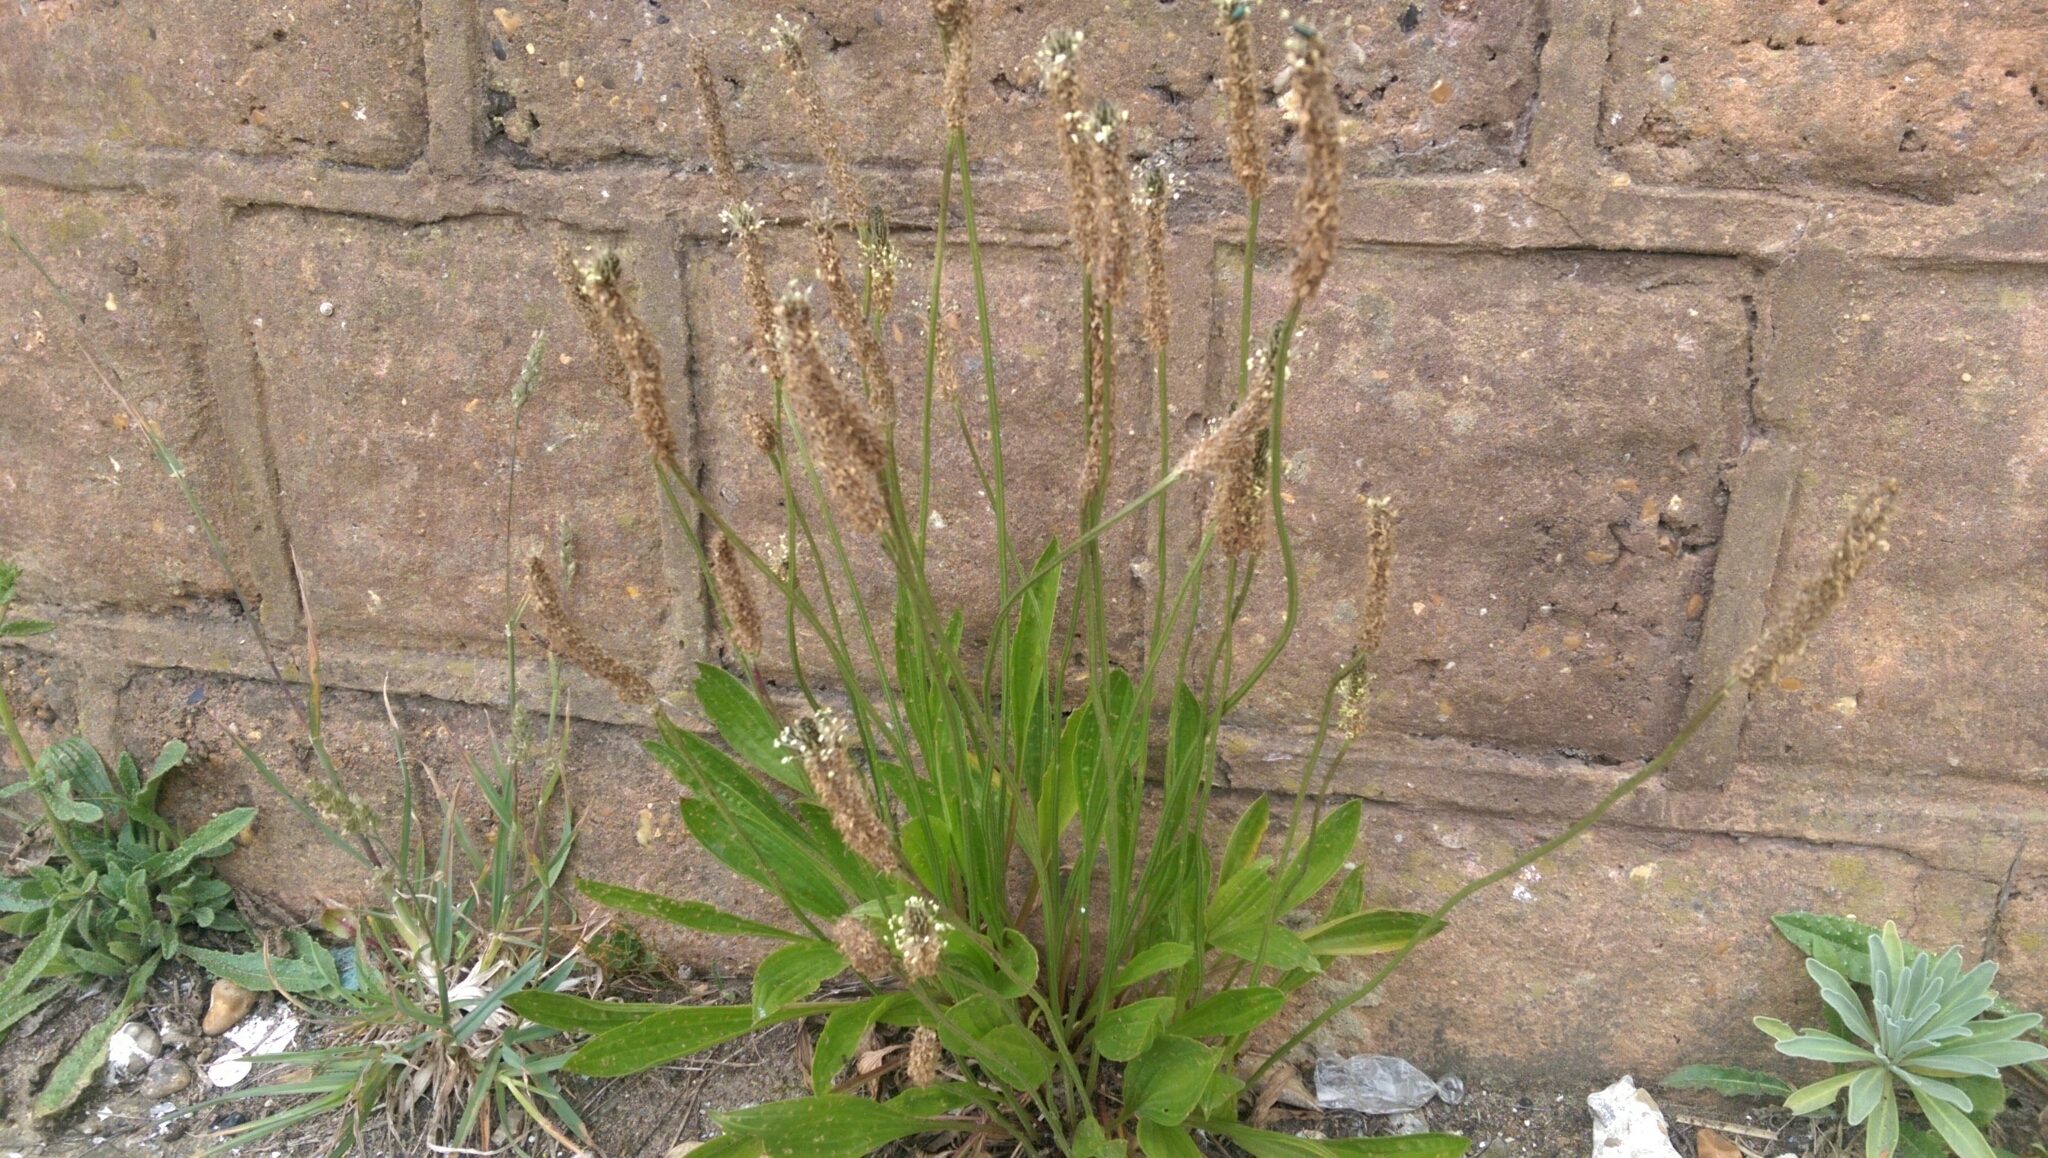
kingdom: Plantae
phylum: Tracheophyta
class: Magnoliopsida
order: Lamiales
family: Plantaginaceae
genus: Plantago
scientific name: Plantago lanceolata
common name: Ribwort plantain
